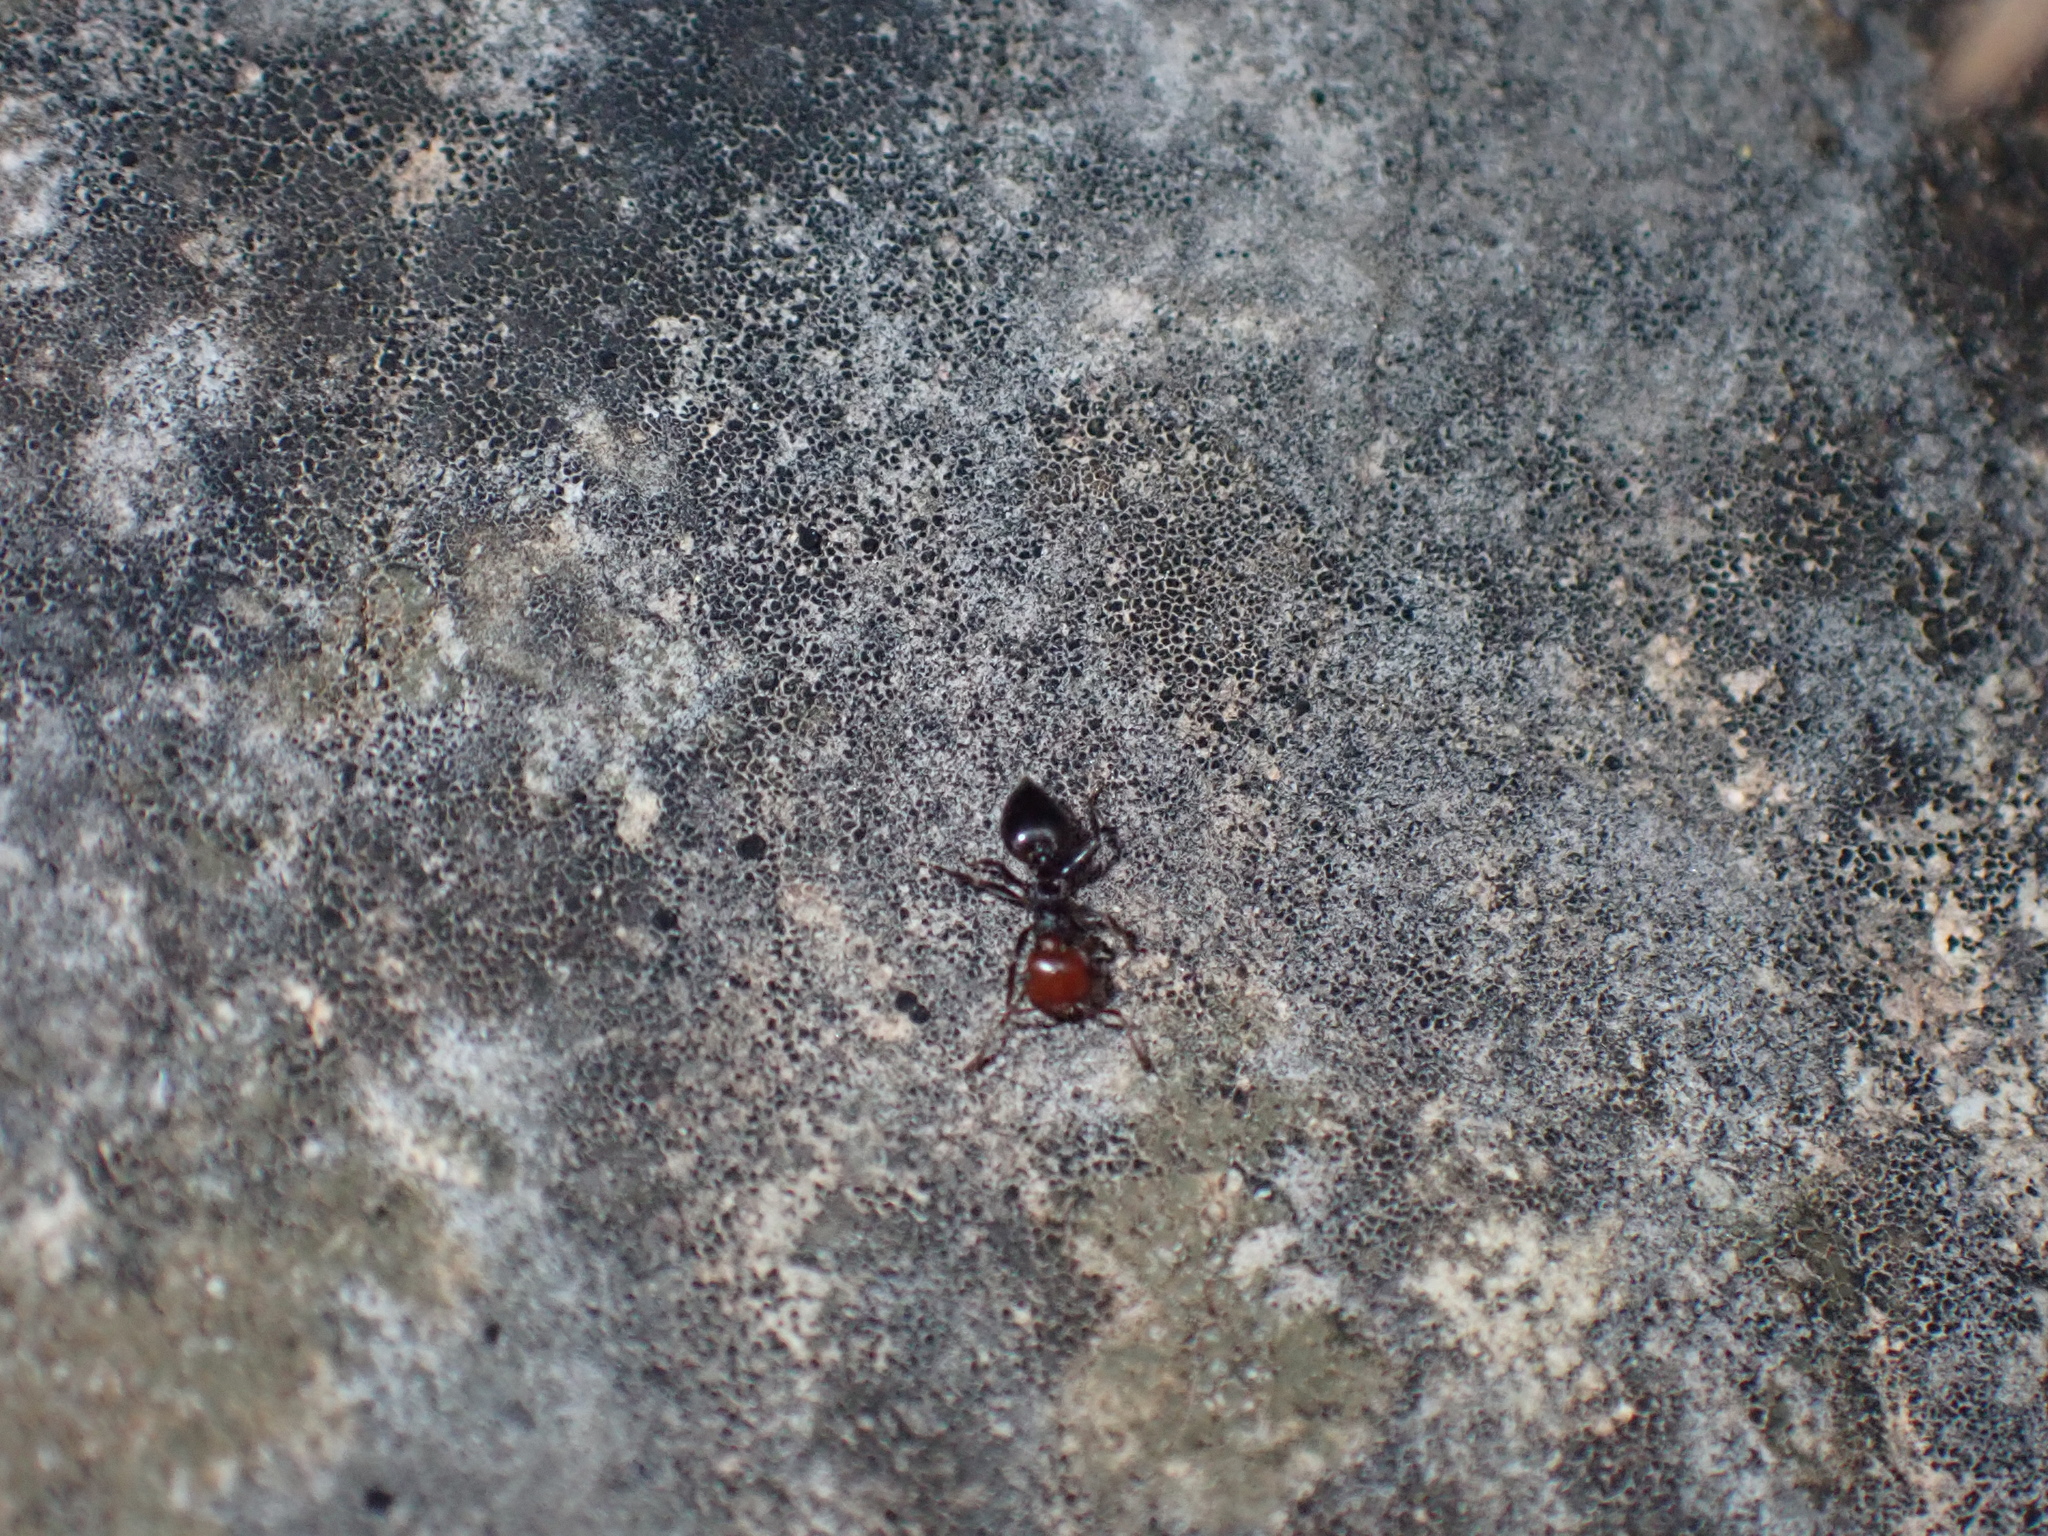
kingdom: Animalia
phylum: Arthropoda
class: Insecta
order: Hymenoptera
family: Formicidae
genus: Crematogaster
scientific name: Crematogaster scutellaris
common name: Fourmi du liège
